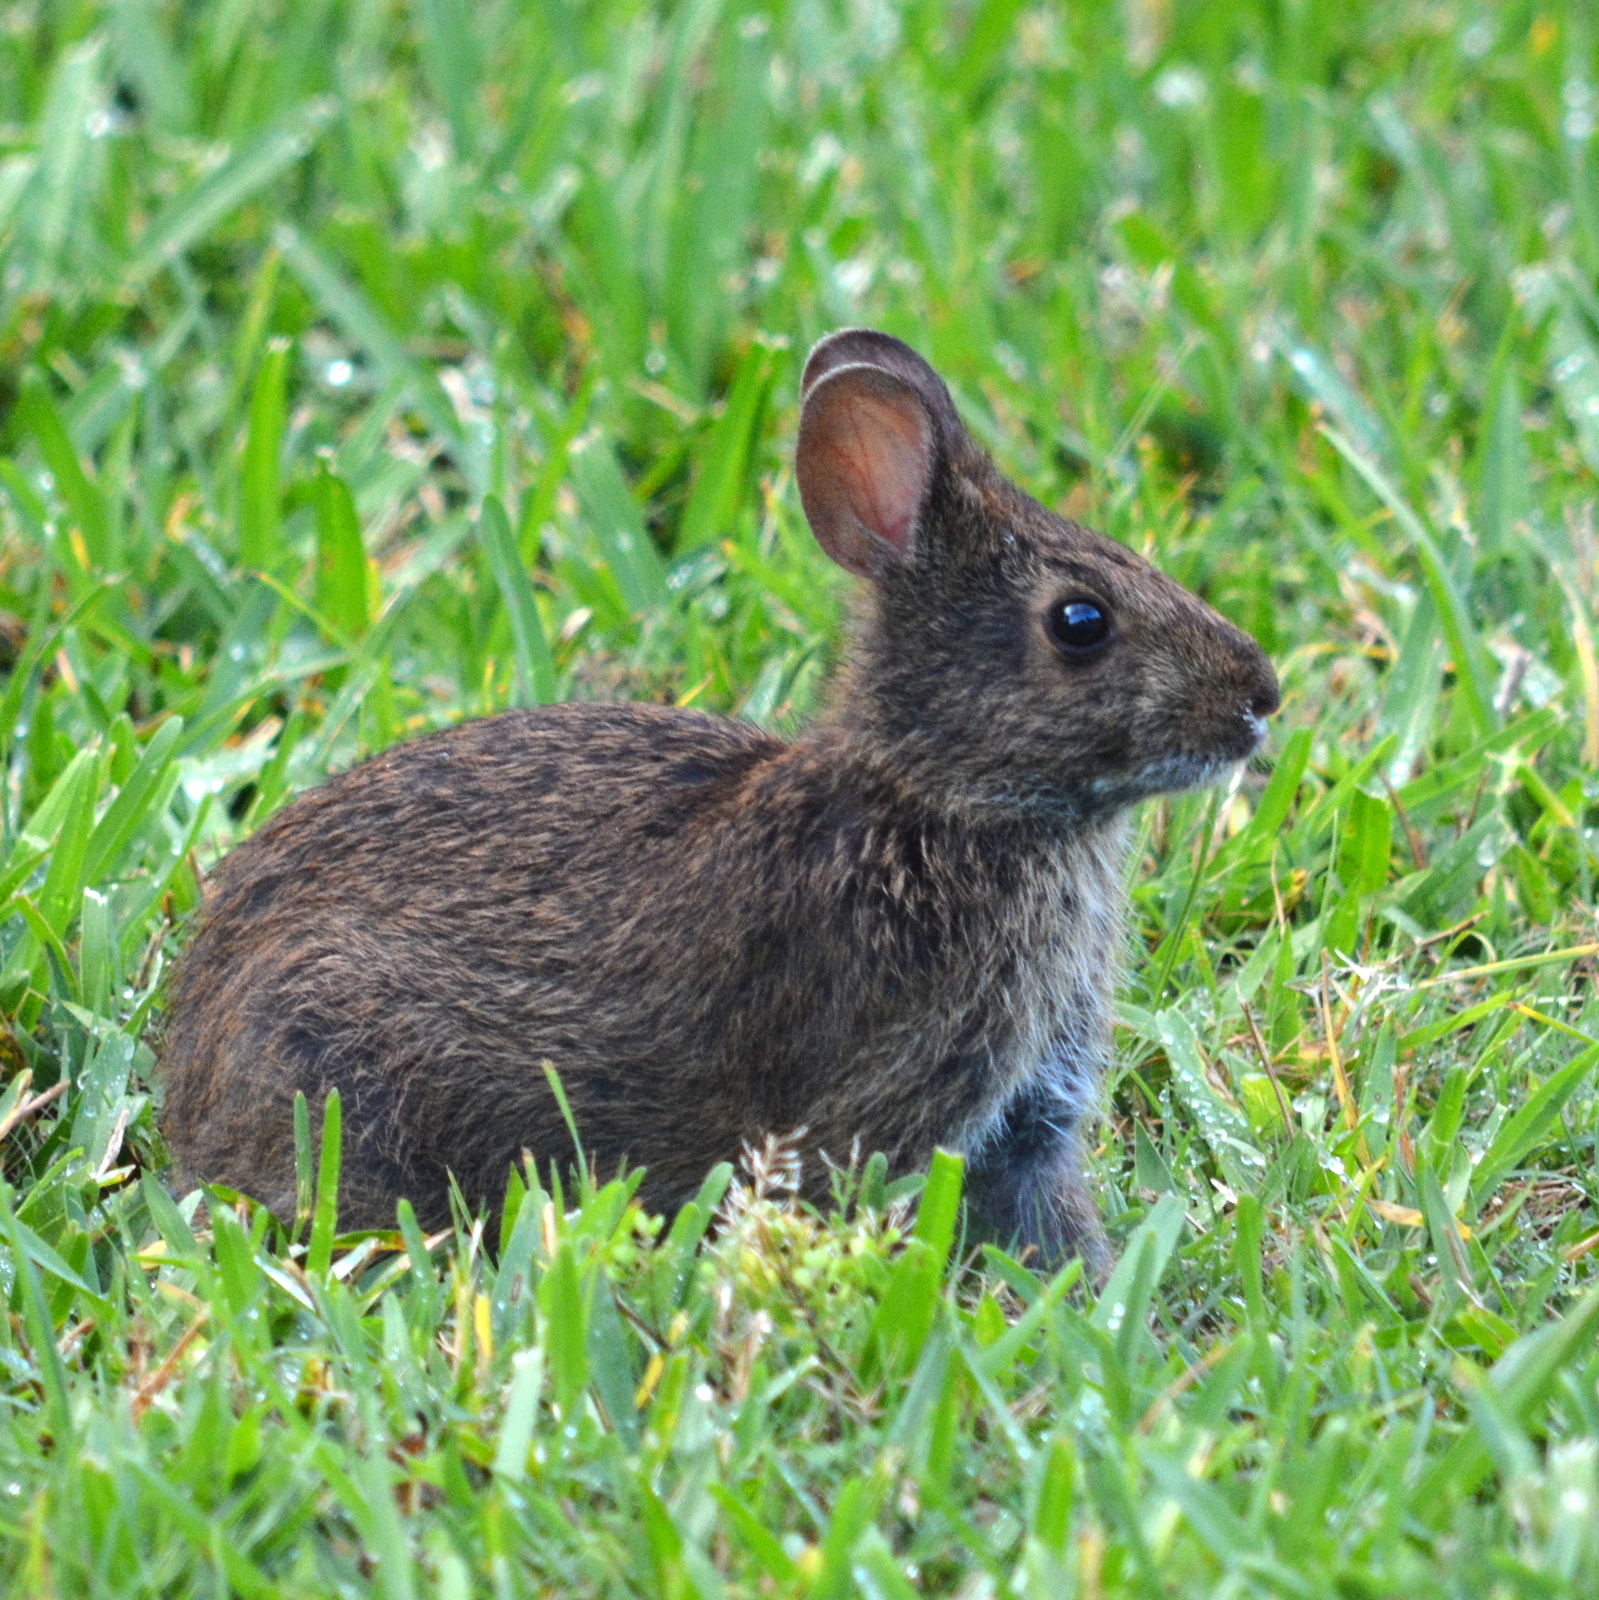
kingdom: Animalia
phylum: Chordata
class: Mammalia
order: Lagomorpha
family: Leporidae
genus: Sylvilagus
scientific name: Sylvilagus palustris
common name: Marsh rabbit
